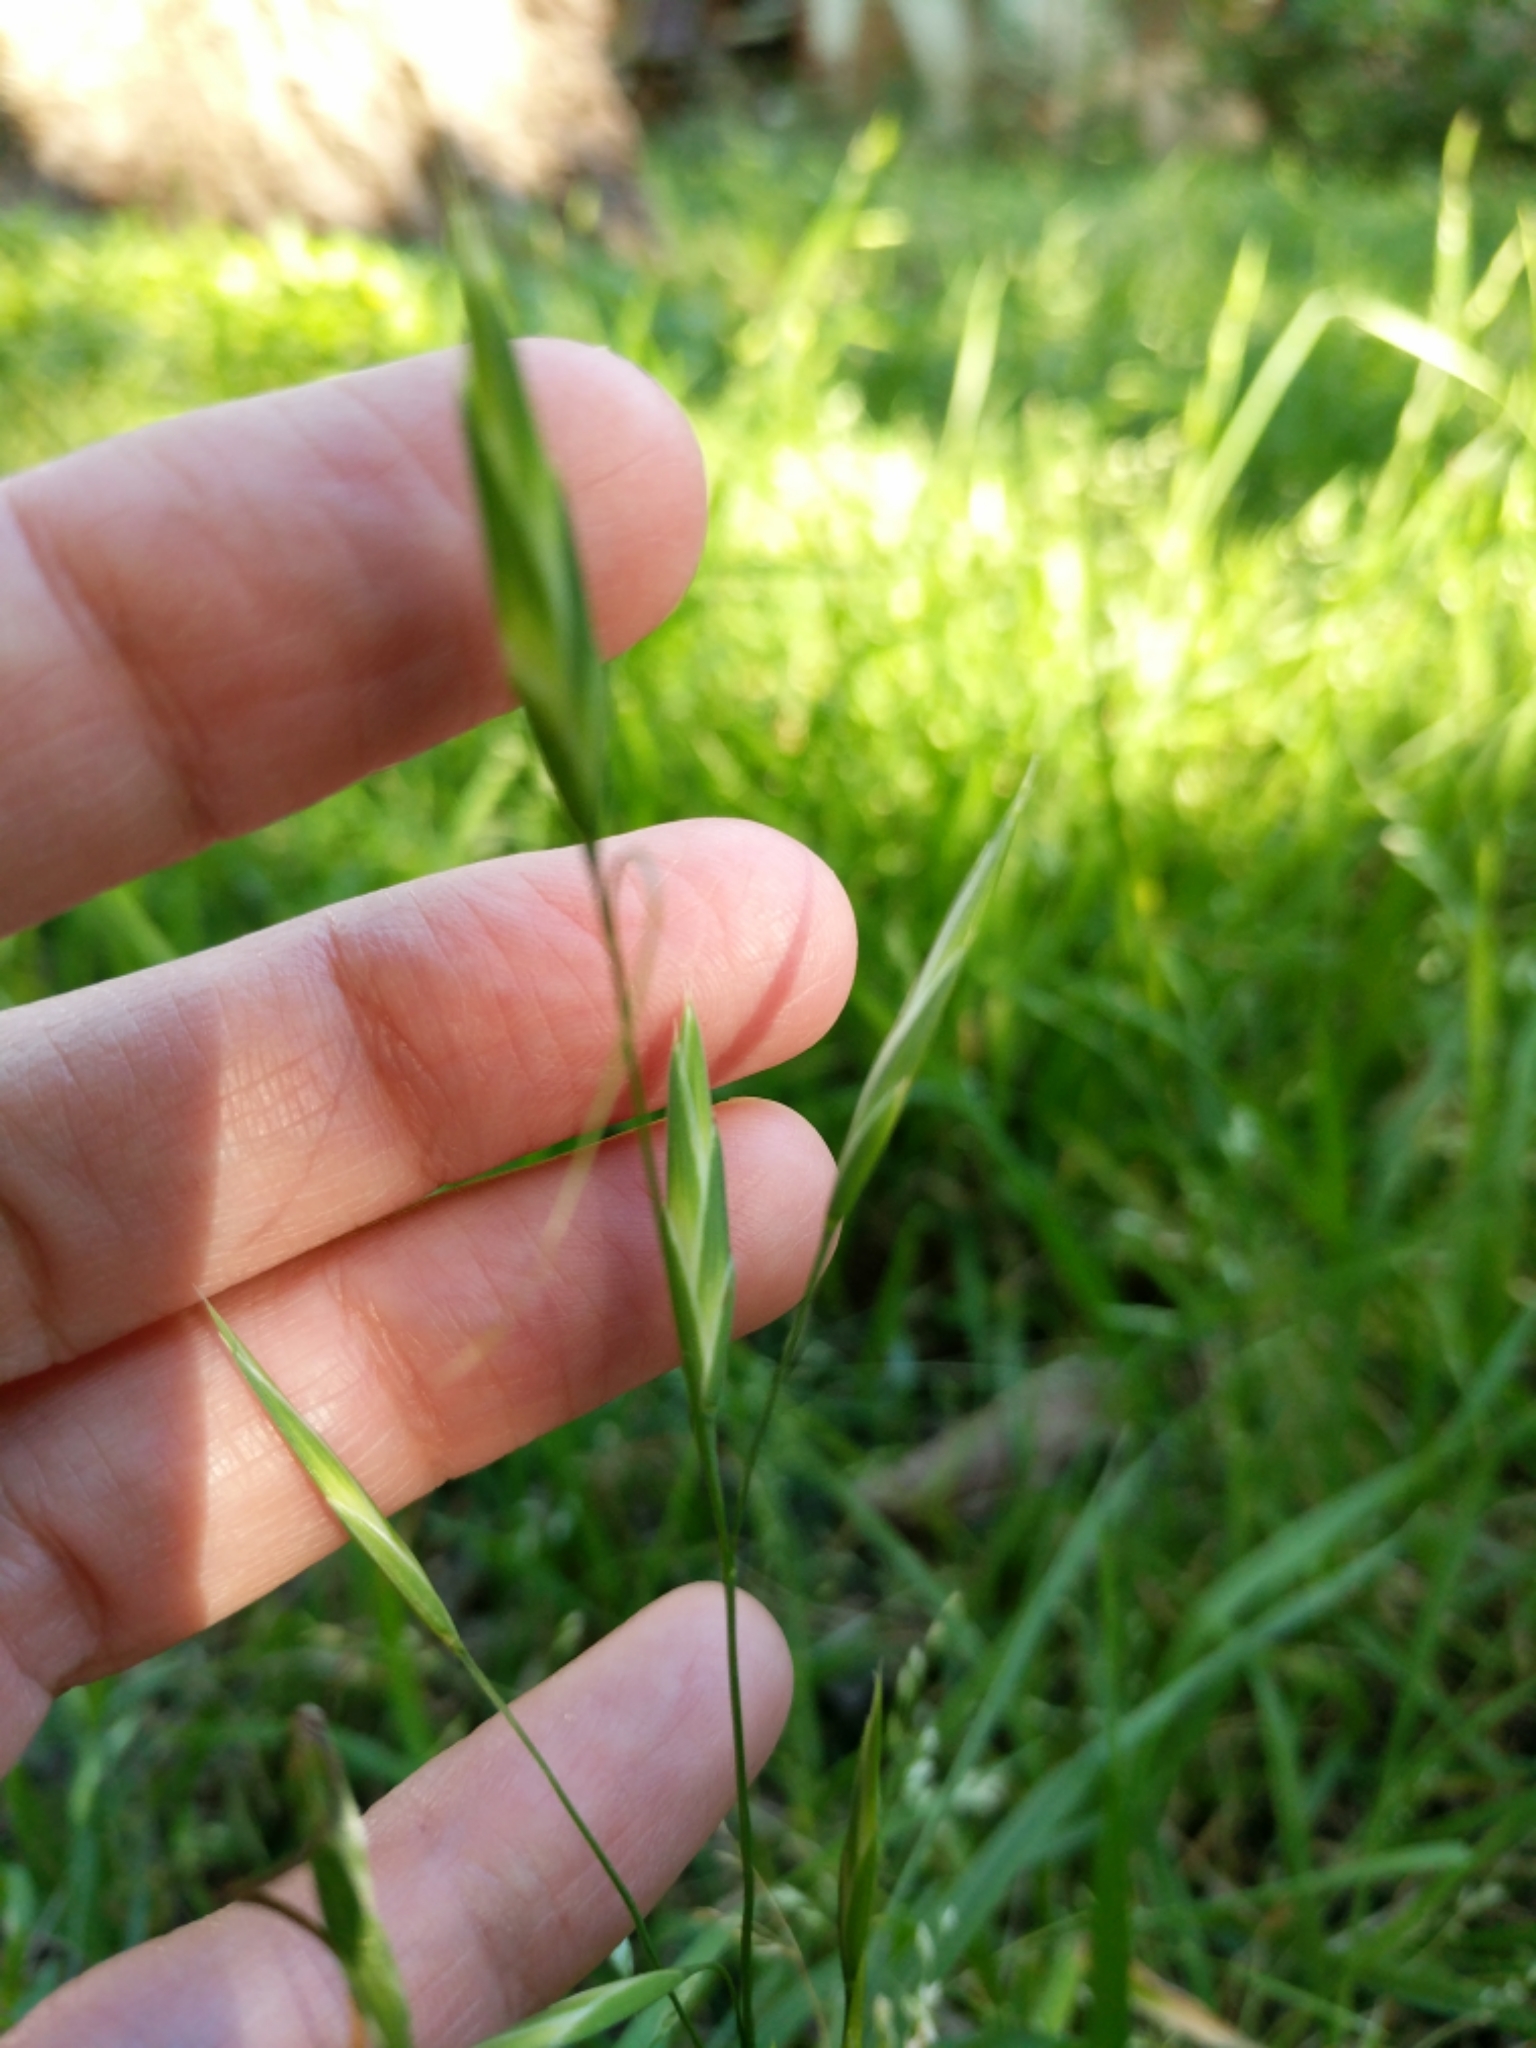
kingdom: Plantae
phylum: Tracheophyta
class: Liliopsida
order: Poales
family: Poaceae
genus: Bromus
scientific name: Bromus catharticus
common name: Rescuegrass
